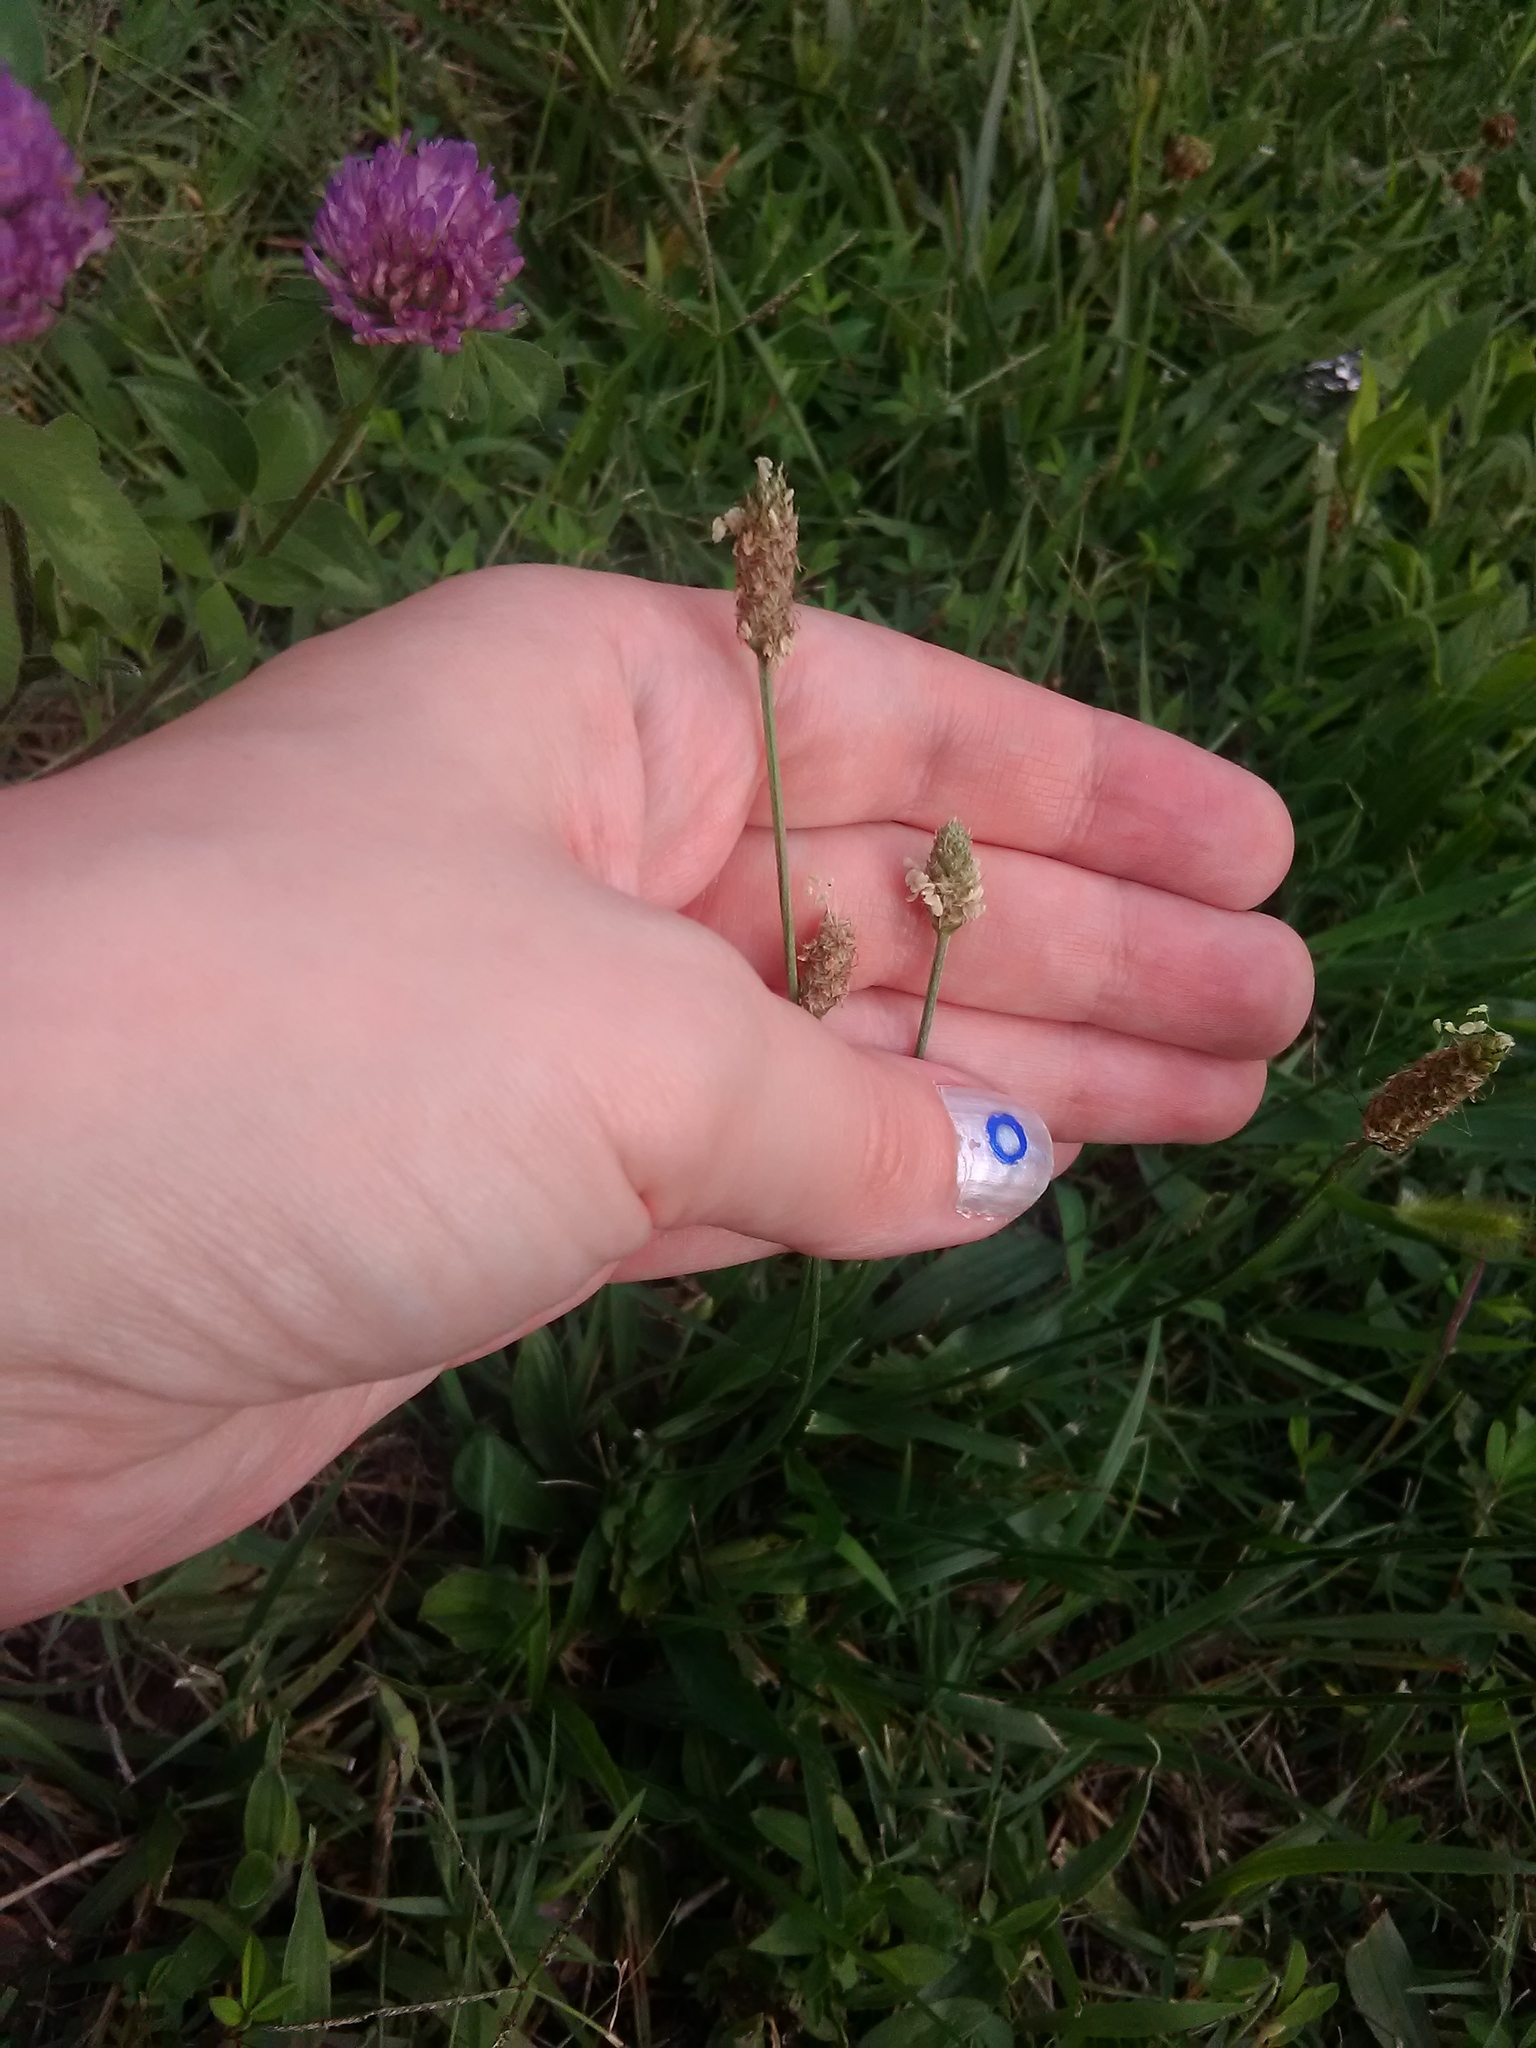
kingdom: Plantae
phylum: Tracheophyta
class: Magnoliopsida
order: Lamiales
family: Plantaginaceae
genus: Plantago
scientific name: Plantago lanceolata
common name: Ribwort plantain
